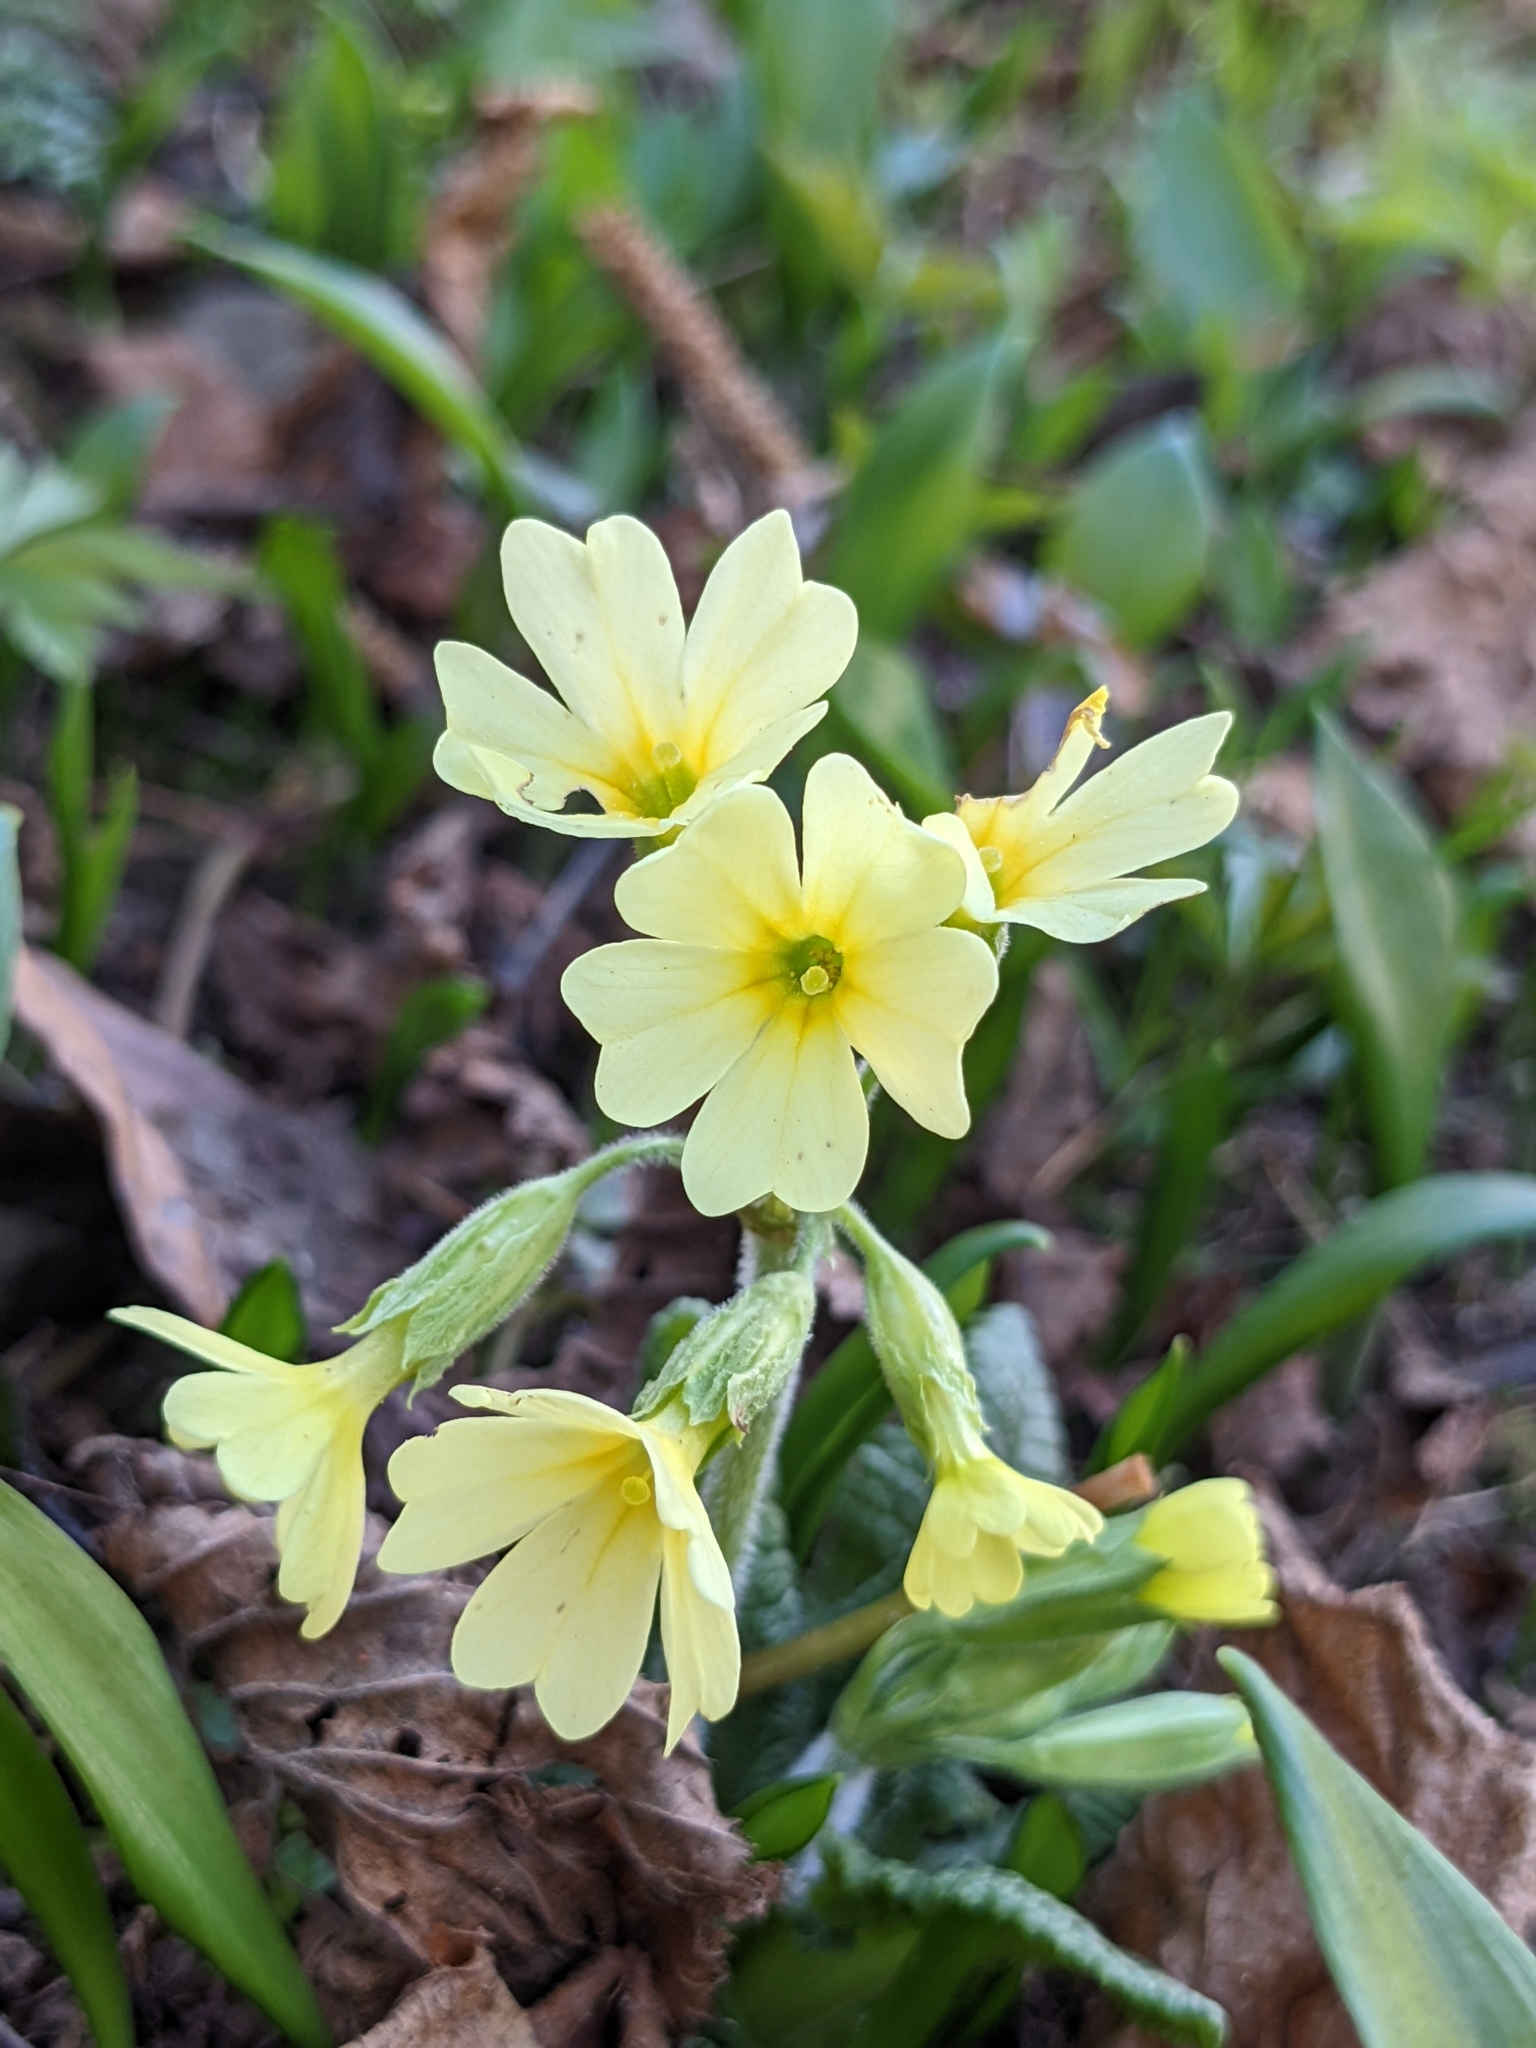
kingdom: Plantae
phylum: Tracheophyta
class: Magnoliopsida
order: Ericales
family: Primulaceae
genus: Primula
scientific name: Primula elatior
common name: Oxlip
